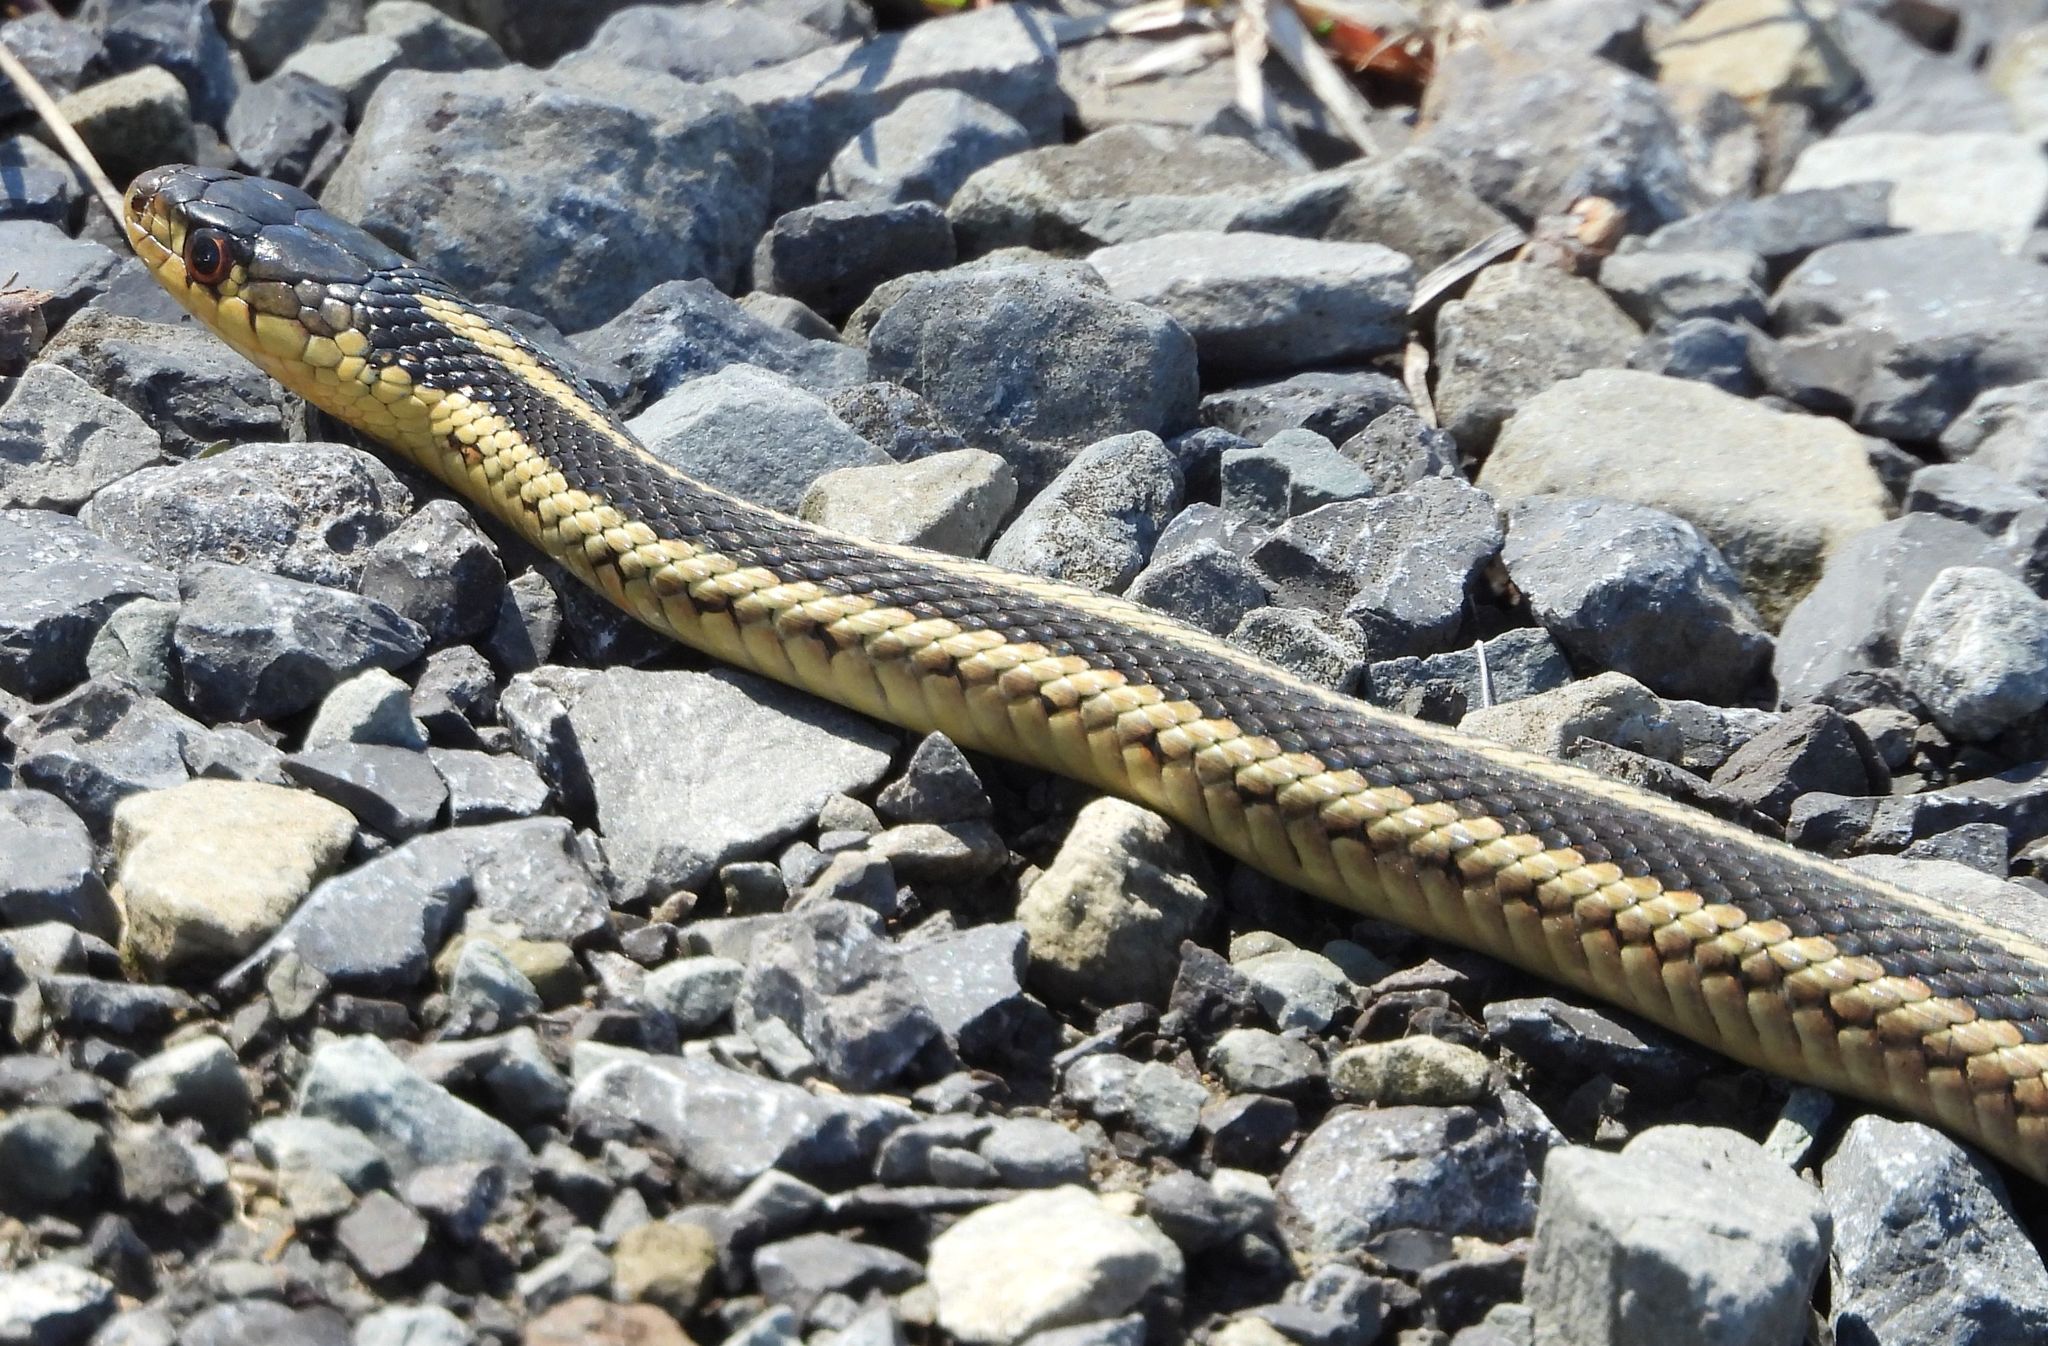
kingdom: Animalia
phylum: Chordata
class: Squamata
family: Colubridae
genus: Thamnophis
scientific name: Thamnophis sirtalis
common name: Common garter snake
